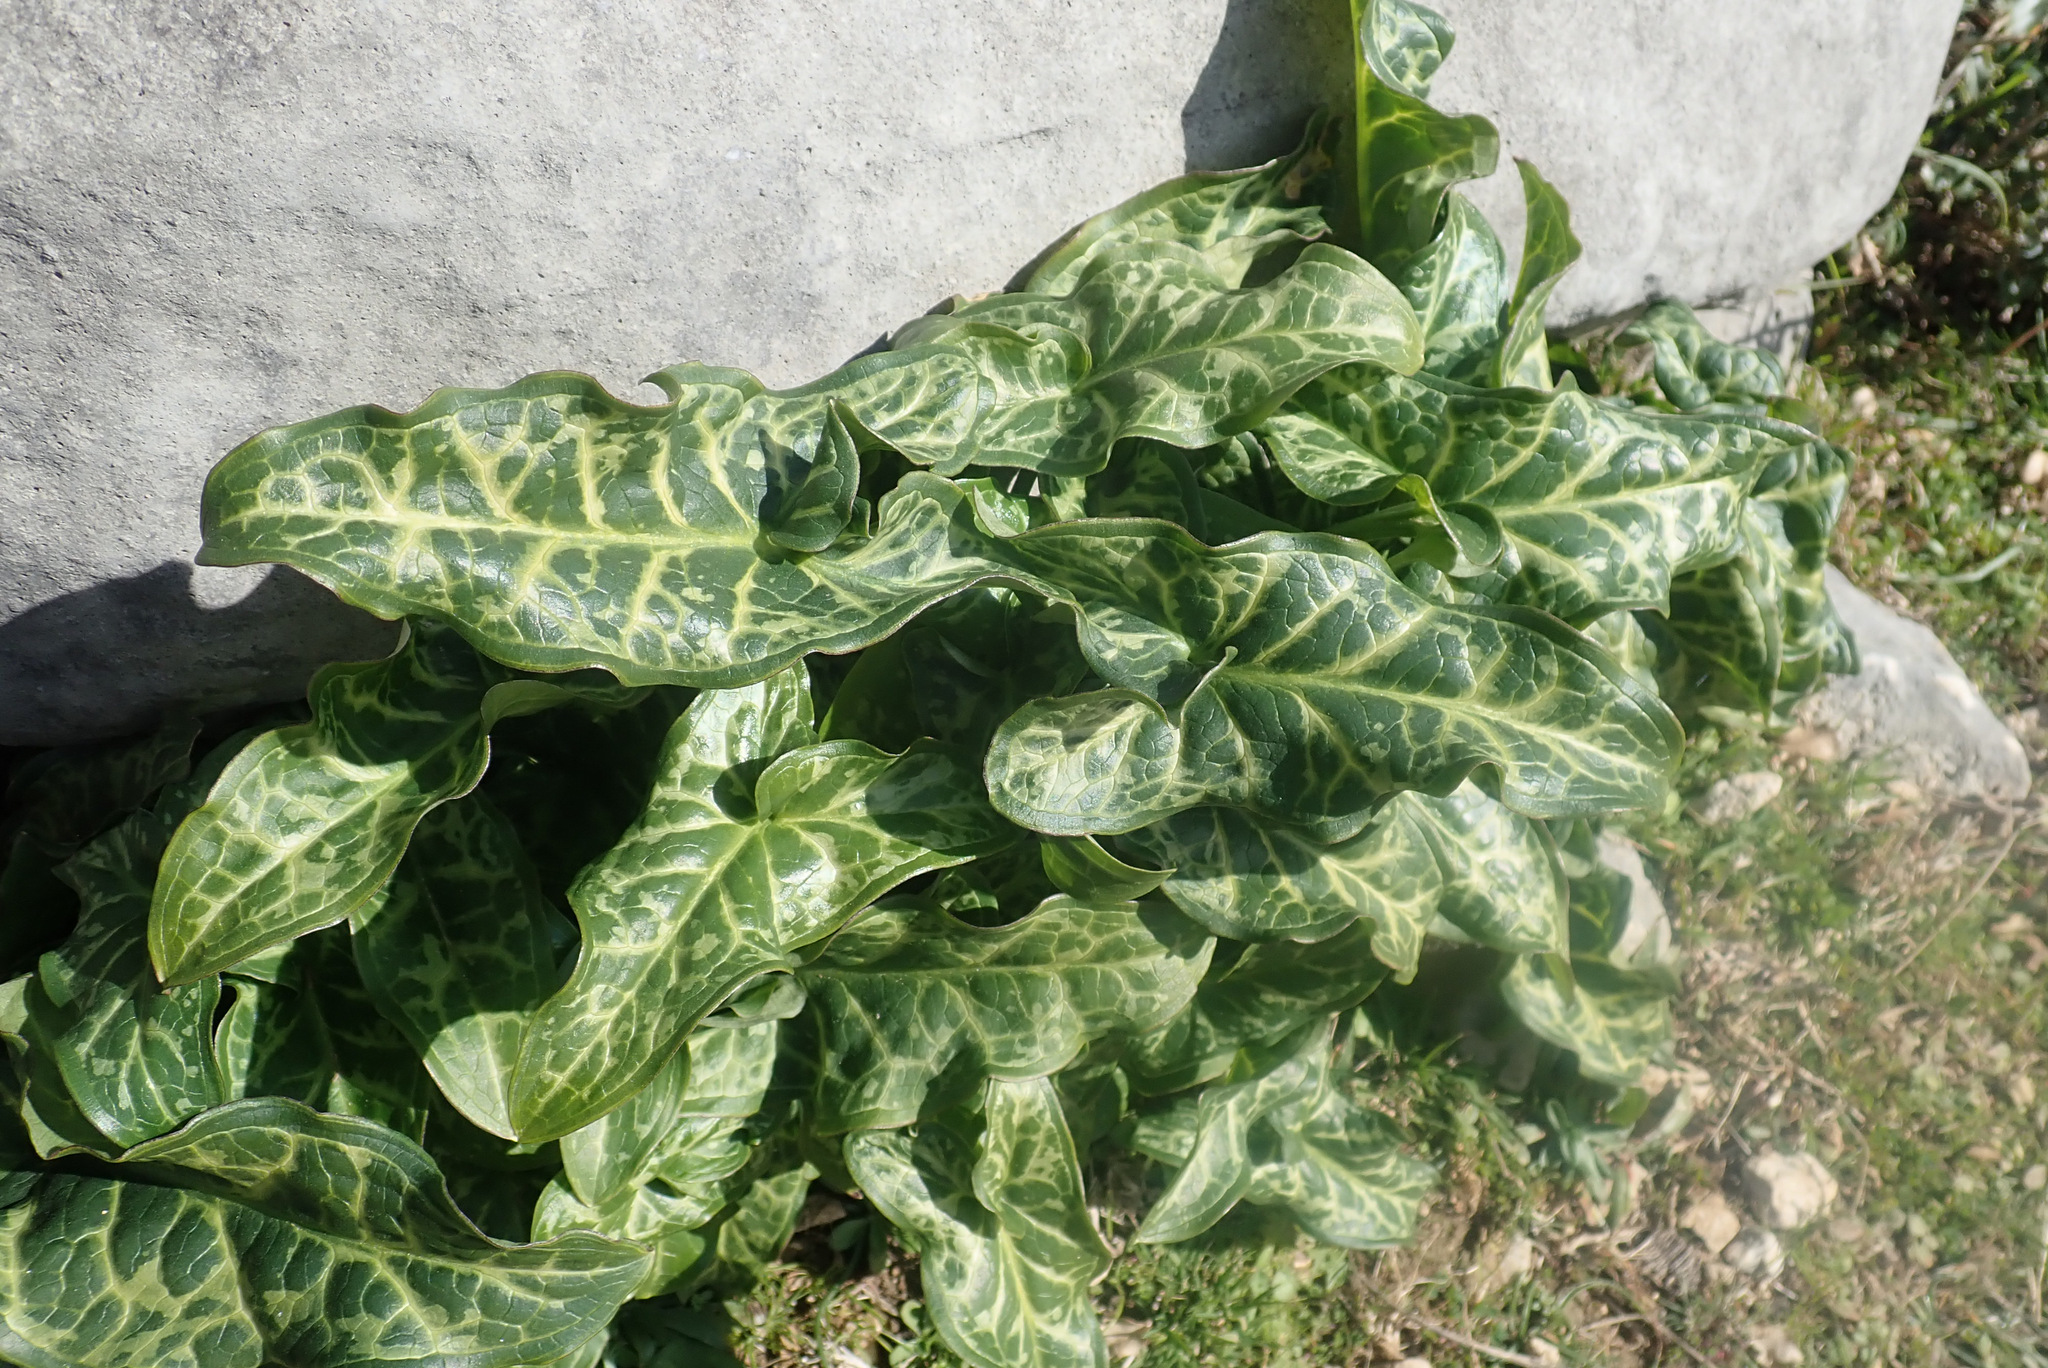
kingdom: Plantae
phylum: Tracheophyta
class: Liliopsida
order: Alismatales
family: Araceae
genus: Arum
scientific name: Arum italicum
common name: Italian lords-and-ladies
